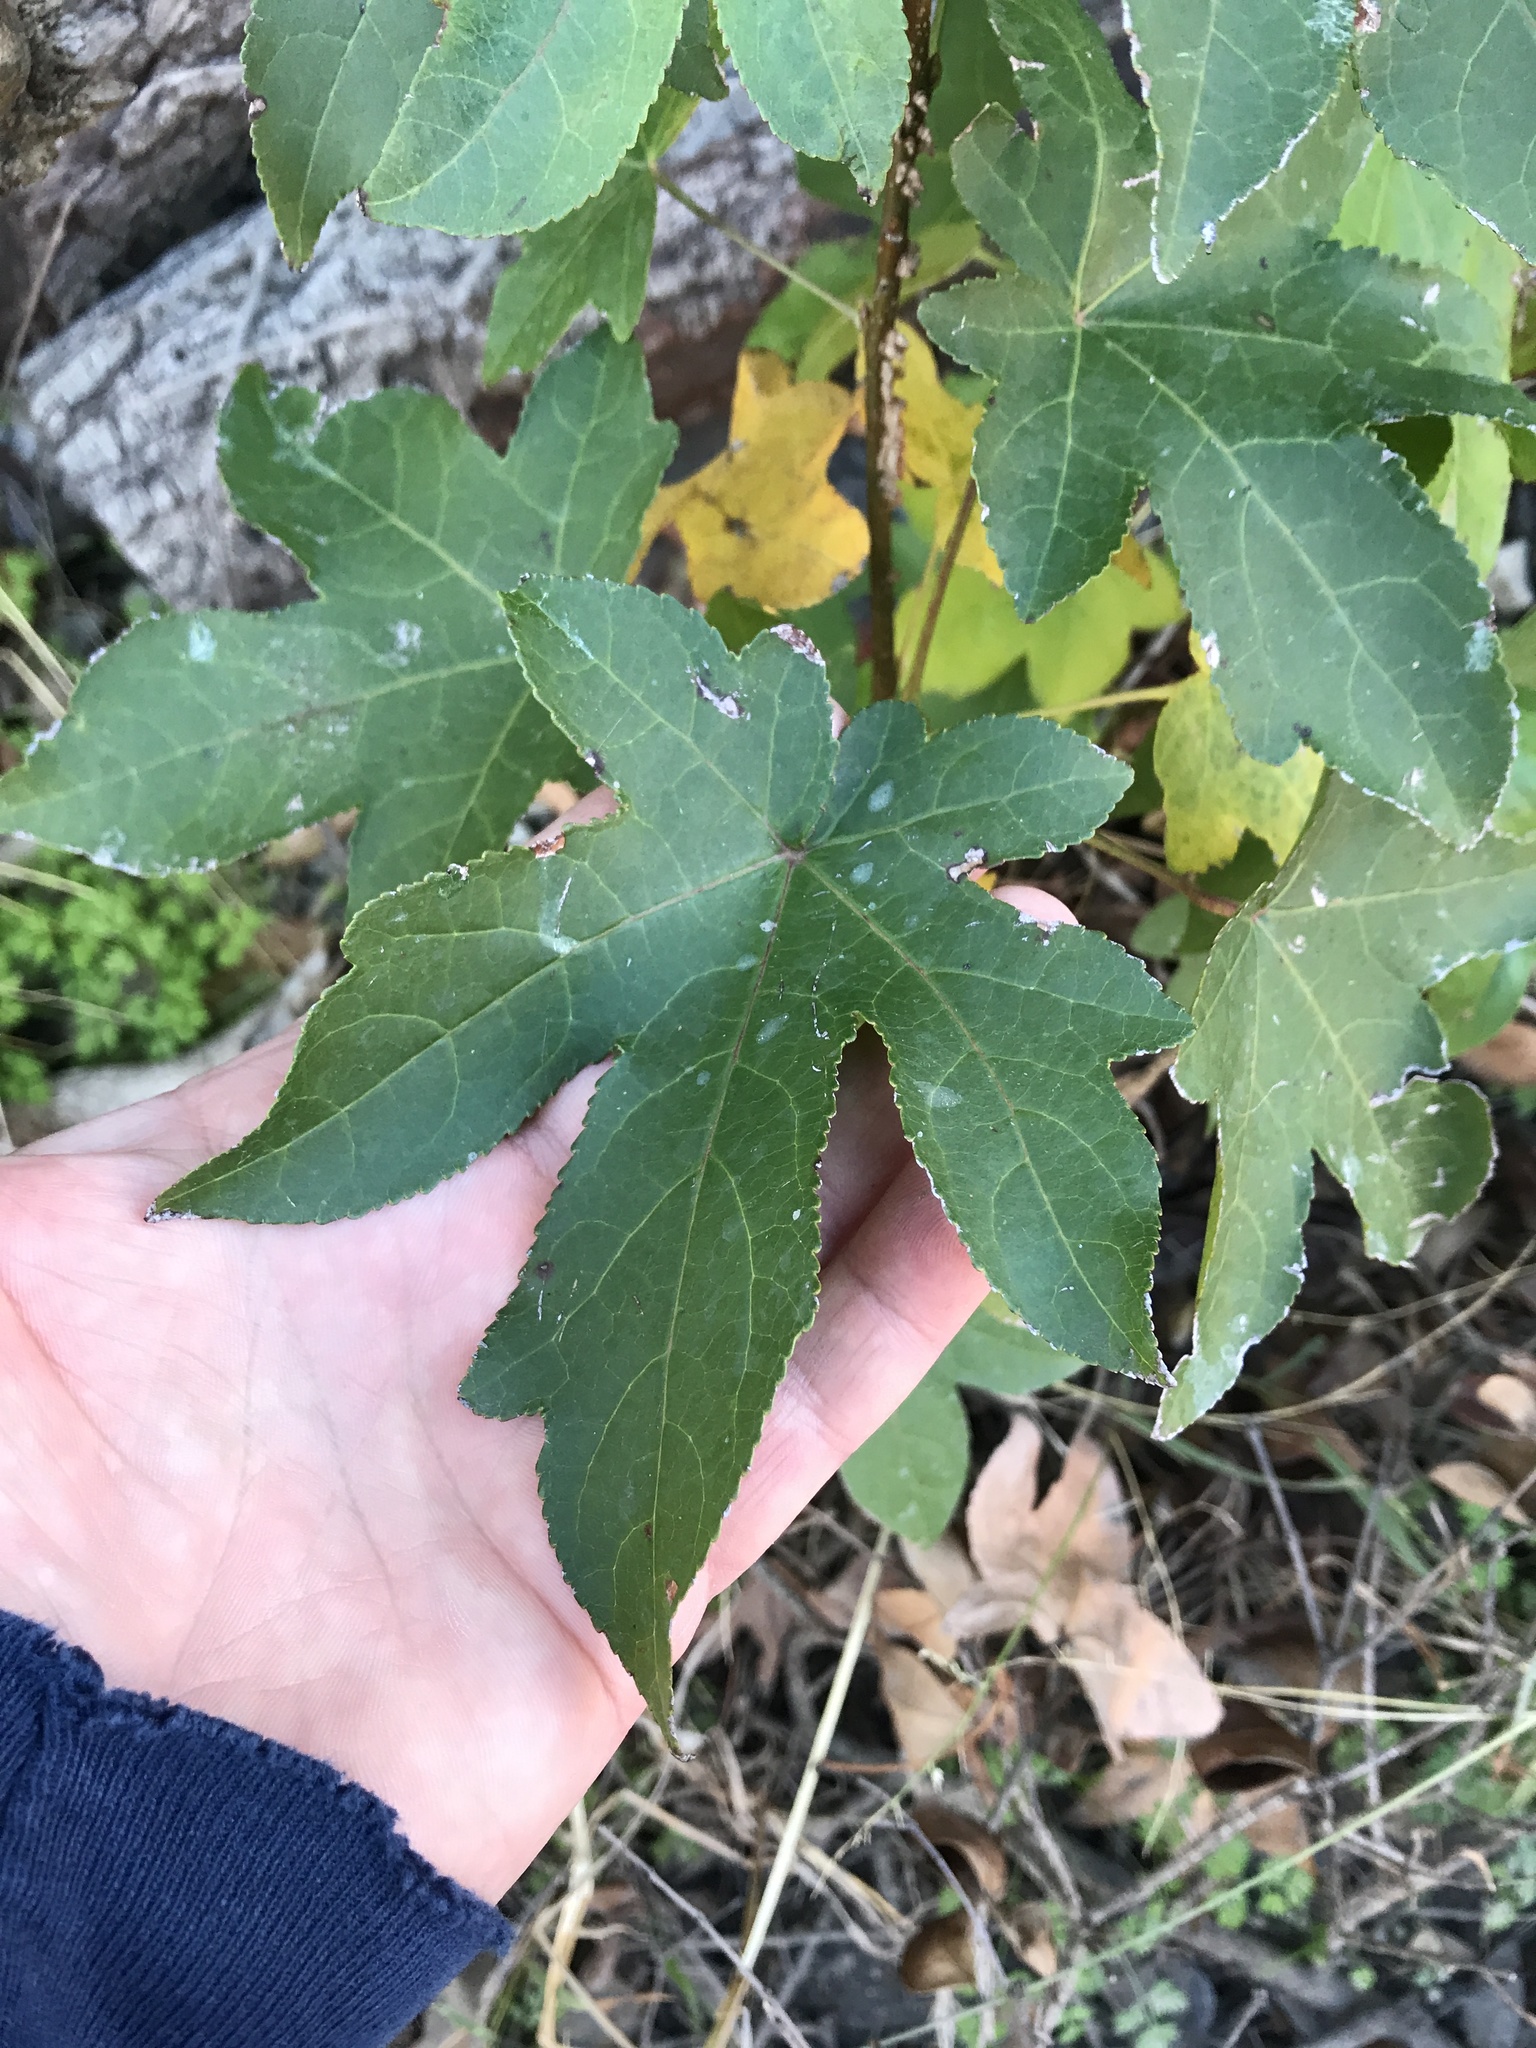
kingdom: Plantae
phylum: Tracheophyta
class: Magnoliopsida
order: Saxifragales
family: Altingiaceae
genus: Liquidambar
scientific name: Liquidambar styraciflua
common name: Sweet gum
